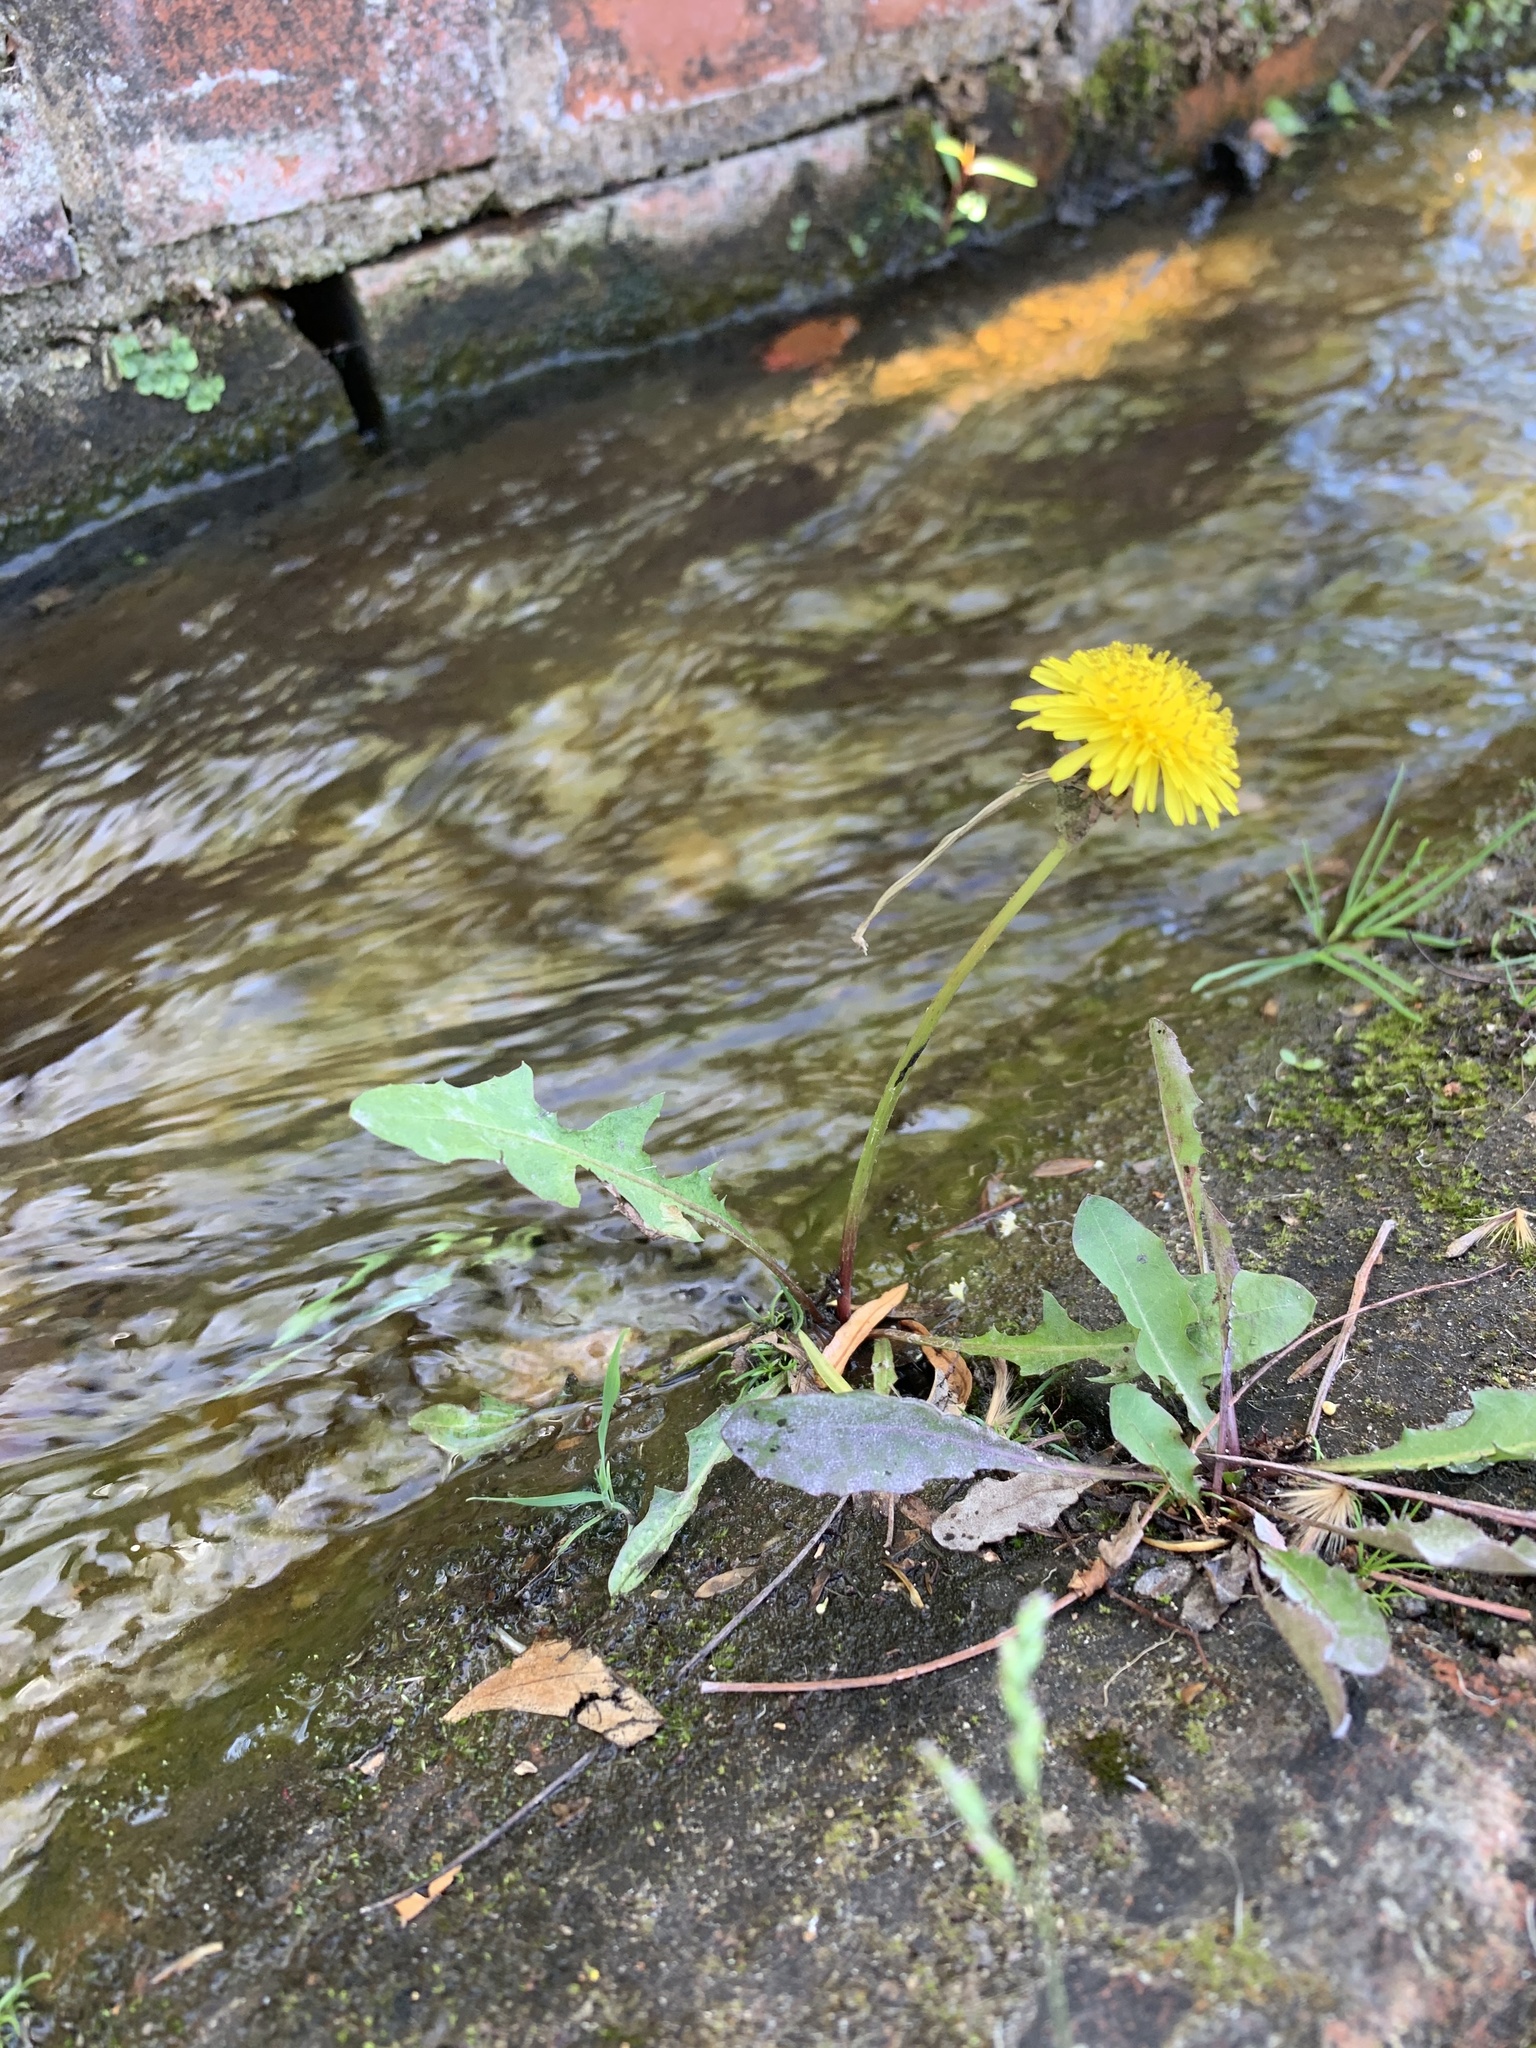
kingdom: Plantae
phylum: Tracheophyta
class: Magnoliopsida
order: Asterales
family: Asteraceae
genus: Taraxacum
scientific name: Taraxacum officinale
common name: Common dandelion
